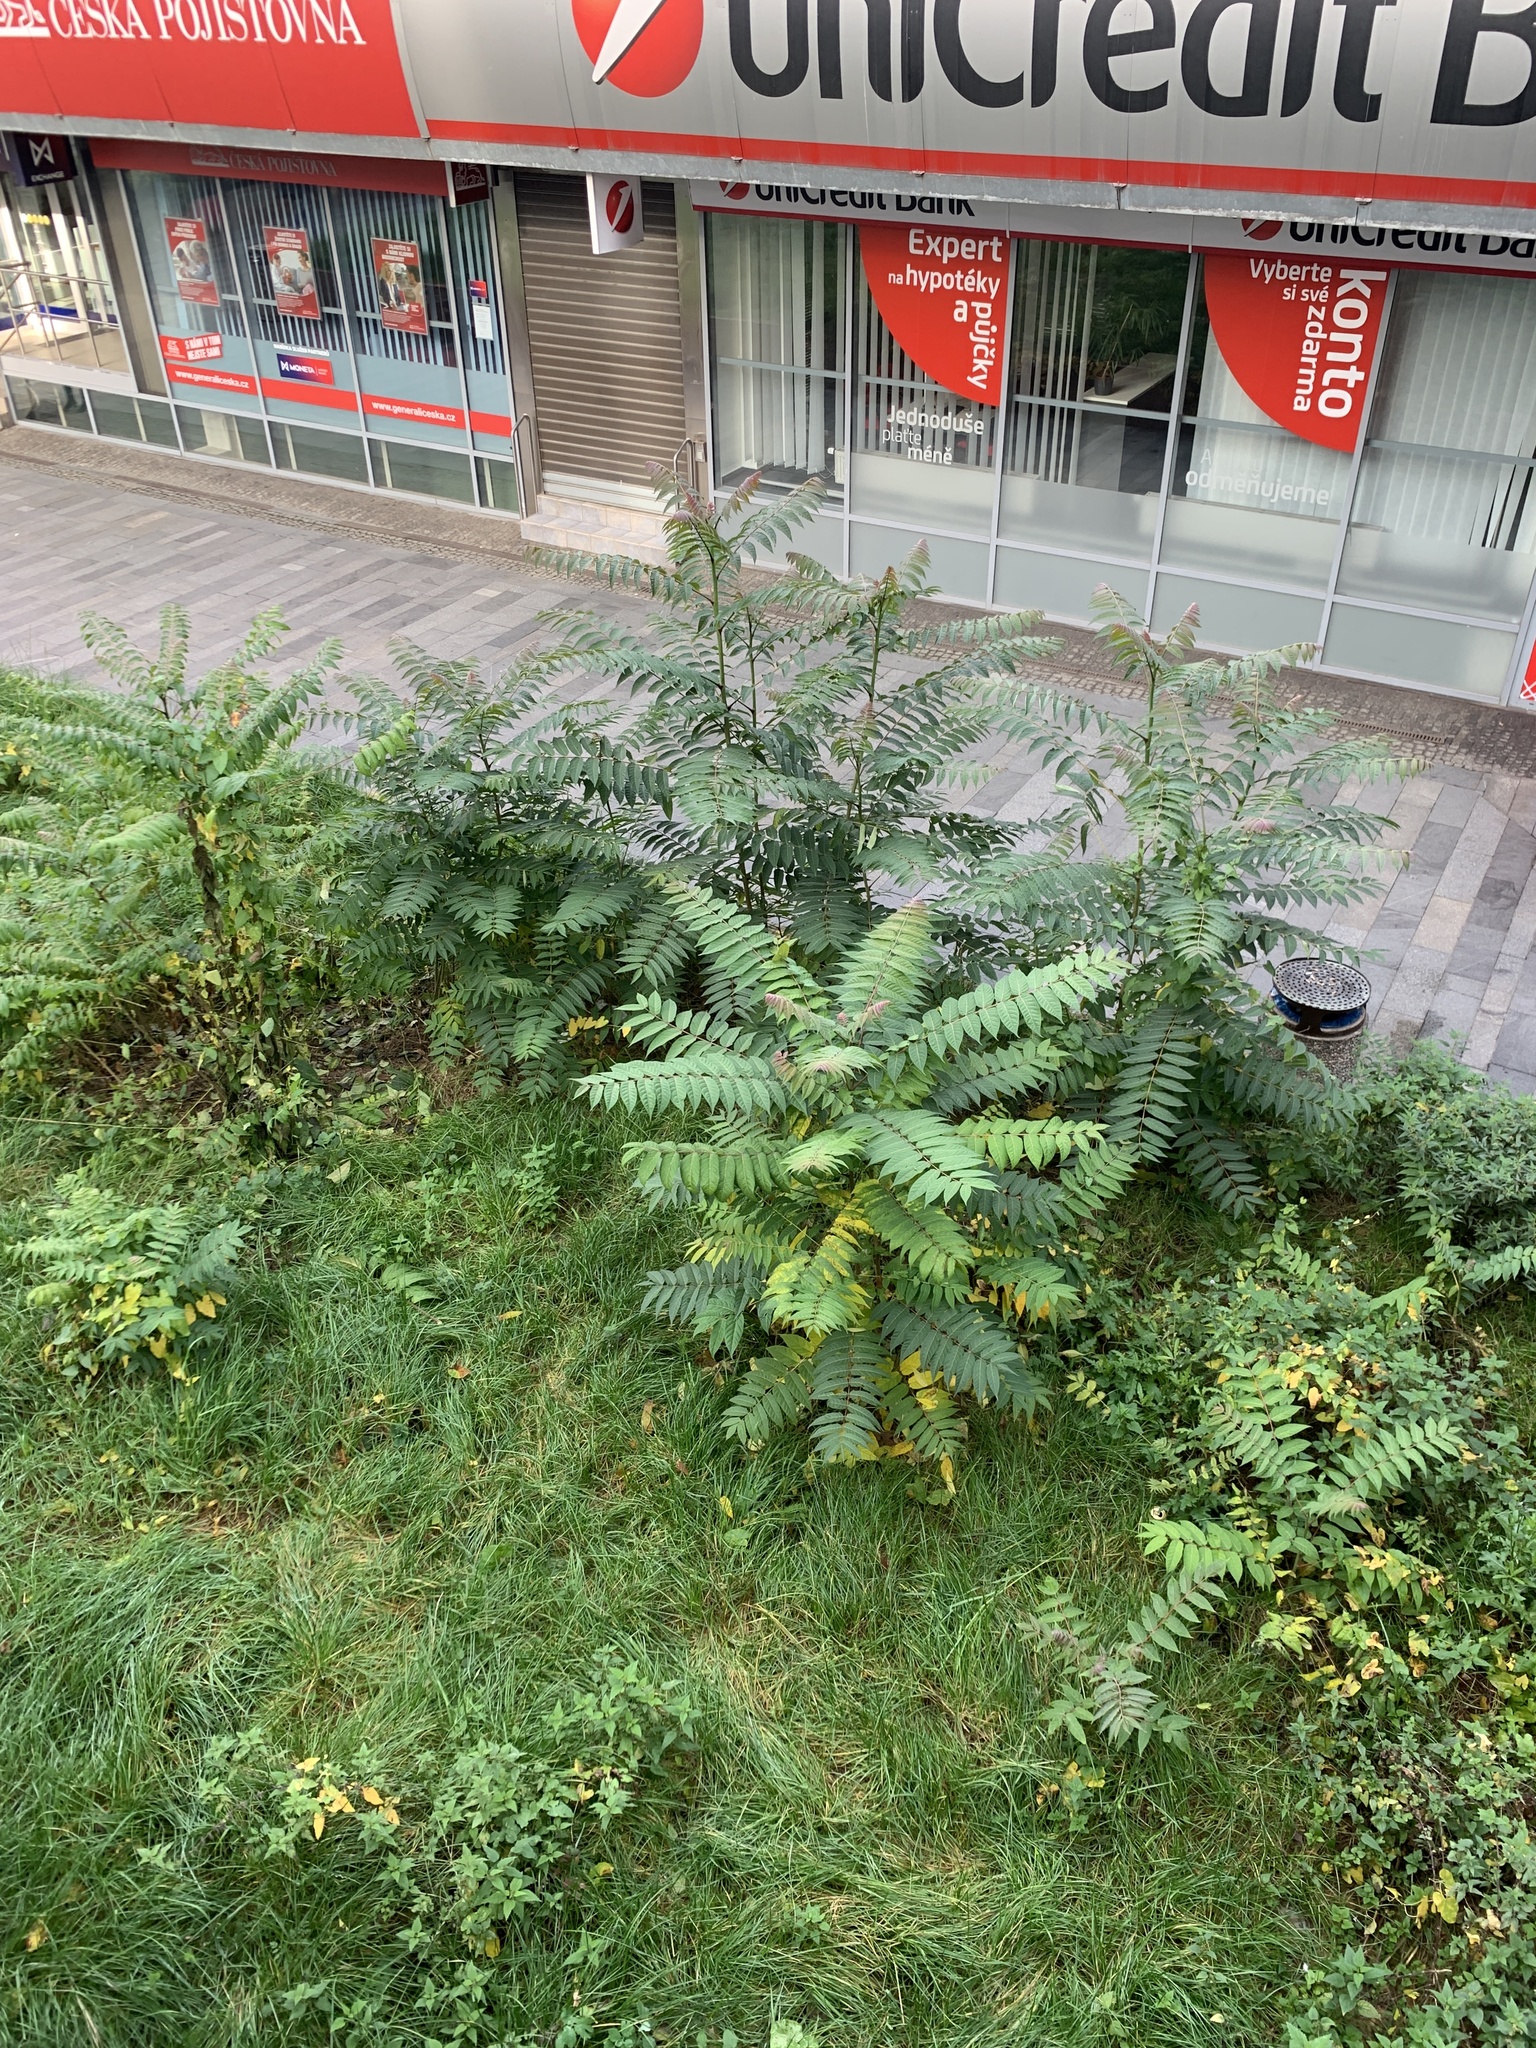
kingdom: Plantae
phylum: Tracheophyta
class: Magnoliopsida
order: Sapindales
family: Simaroubaceae
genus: Ailanthus
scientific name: Ailanthus altissima
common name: Tree-of-heaven
